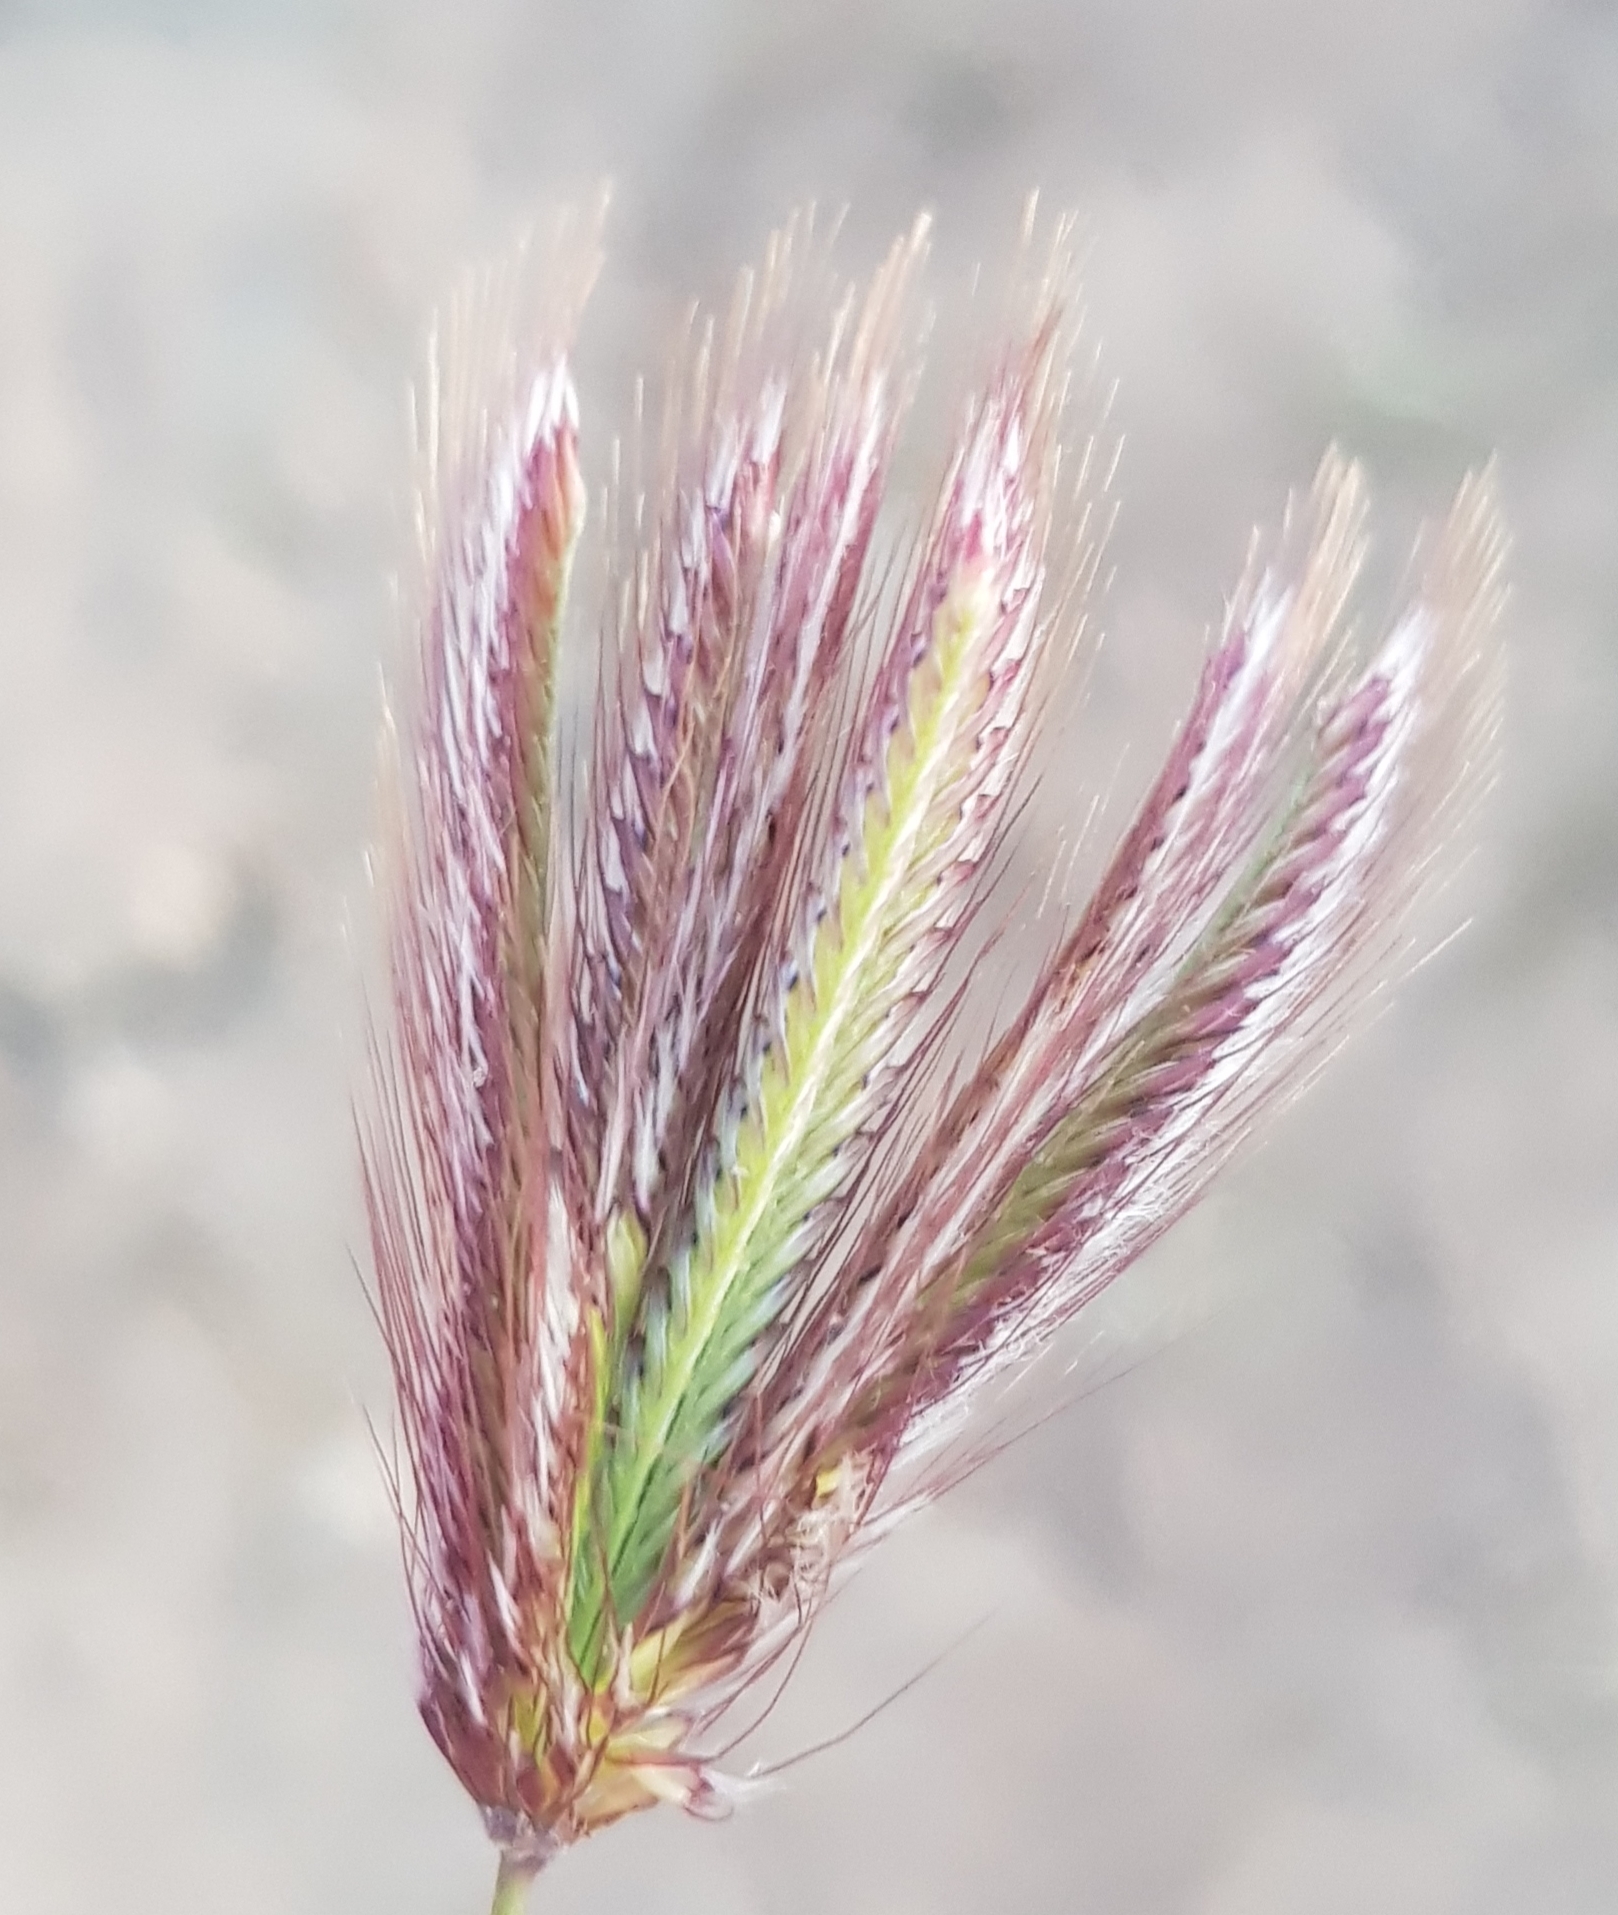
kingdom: Plantae
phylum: Tracheophyta
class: Liliopsida
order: Poales
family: Poaceae
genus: Chloris
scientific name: Chloris virgata
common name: Feathery rhodes-grass
